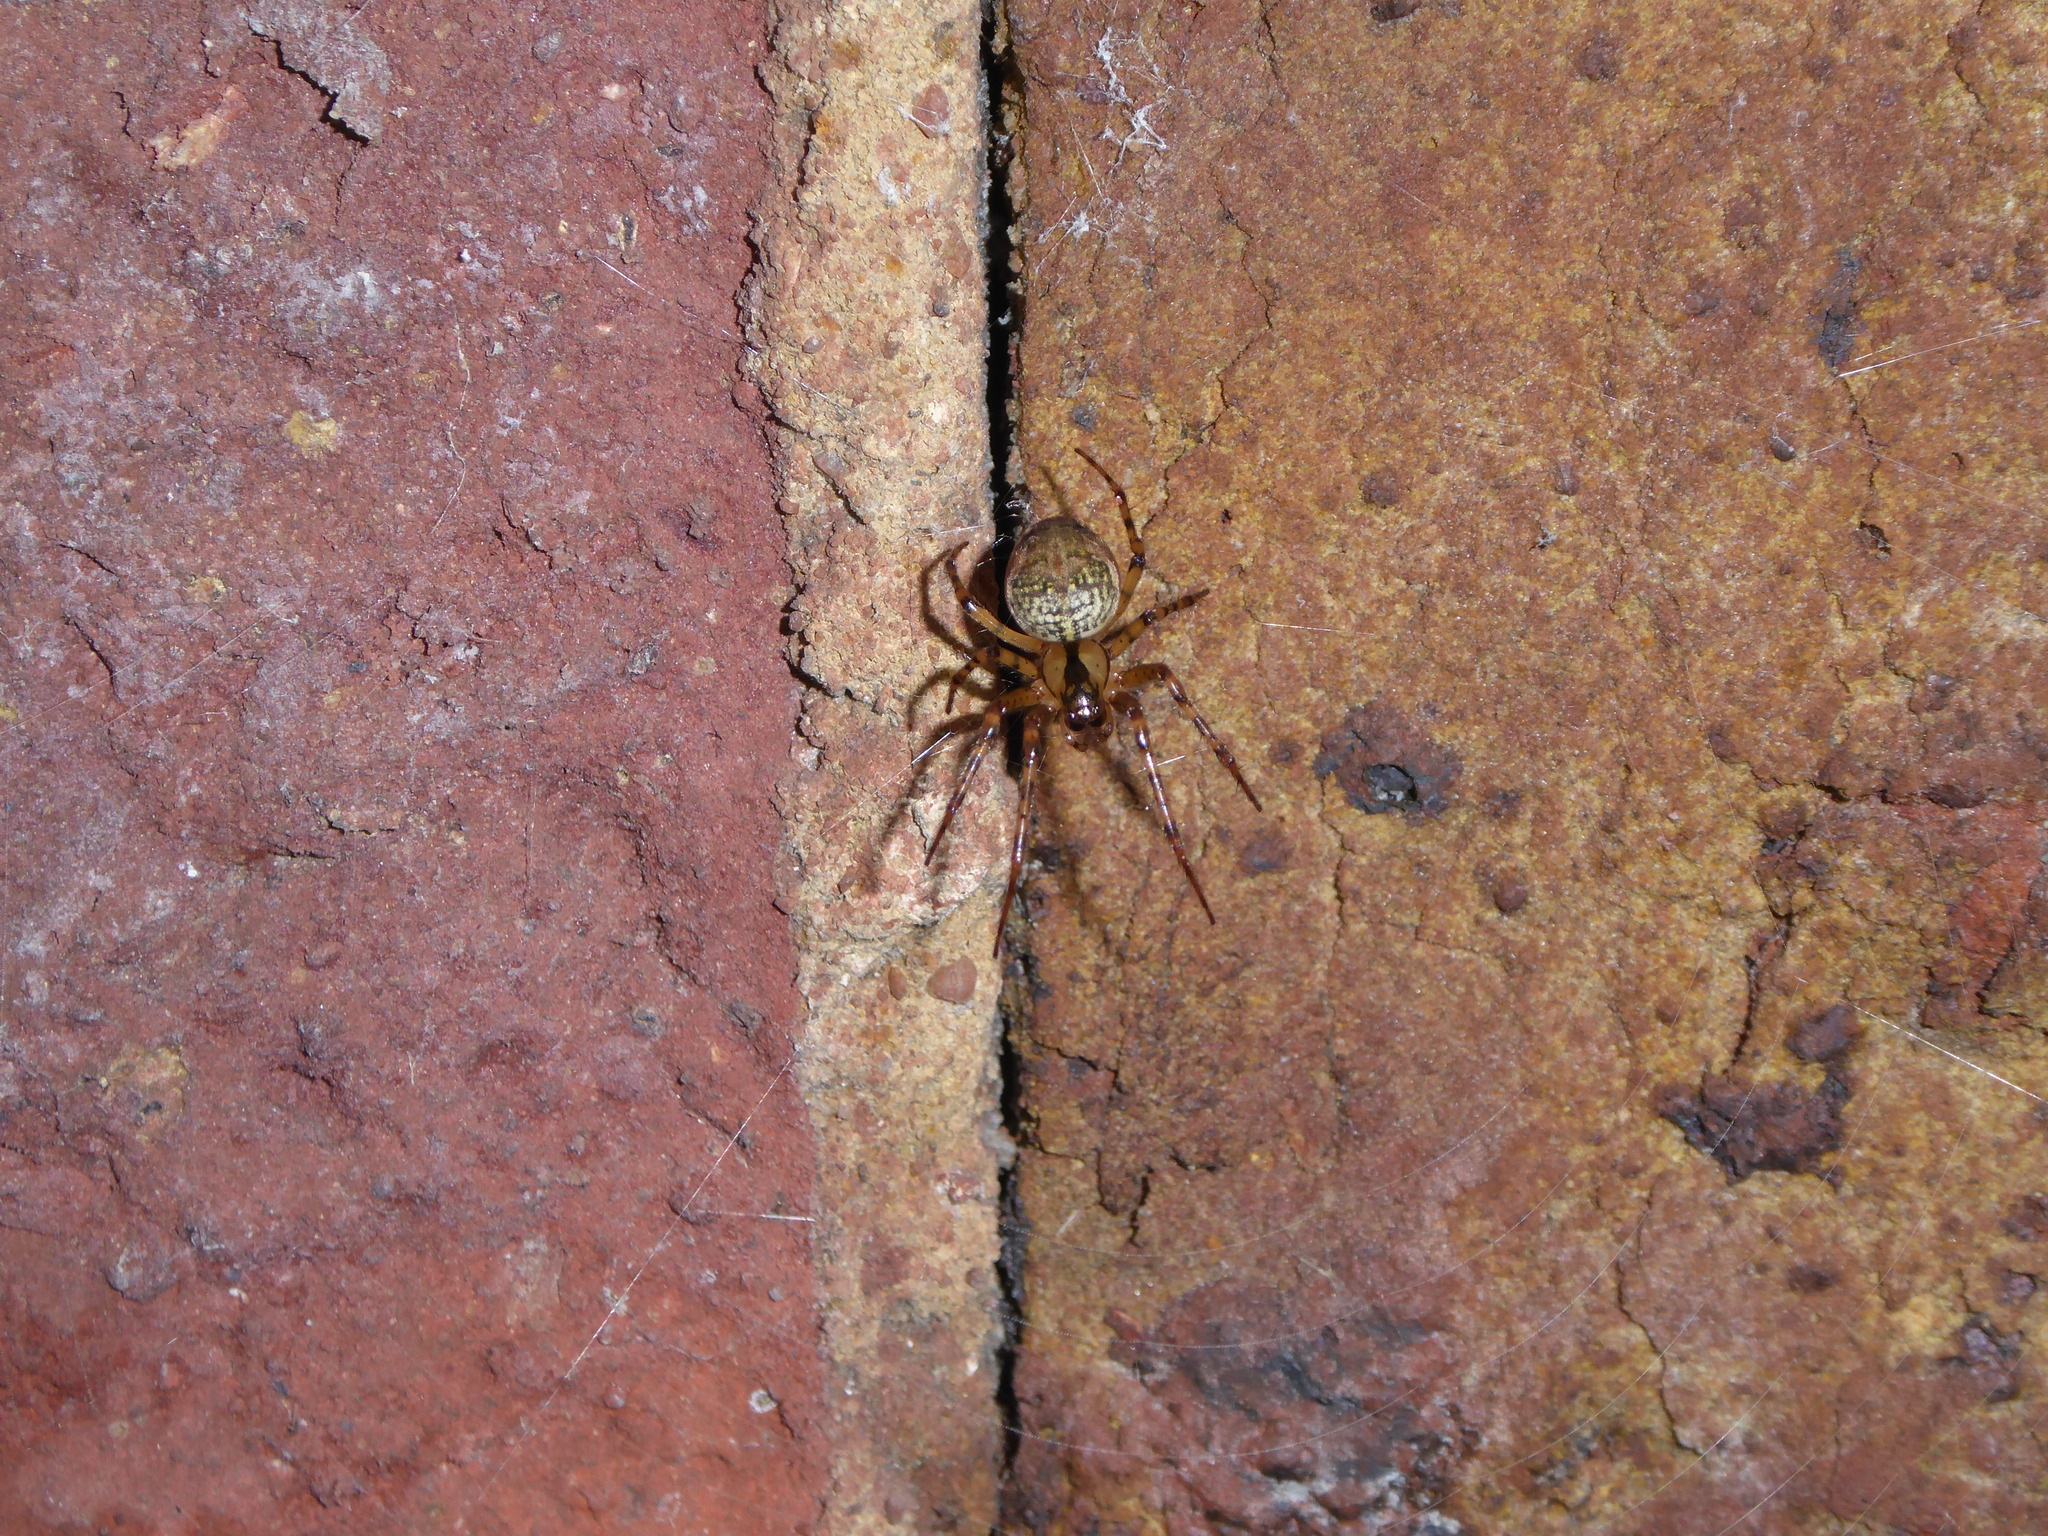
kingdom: Animalia
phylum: Arthropoda
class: Arachnida
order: Araneae
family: Tetragnathidae
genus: Metellina
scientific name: Metellina merianae
